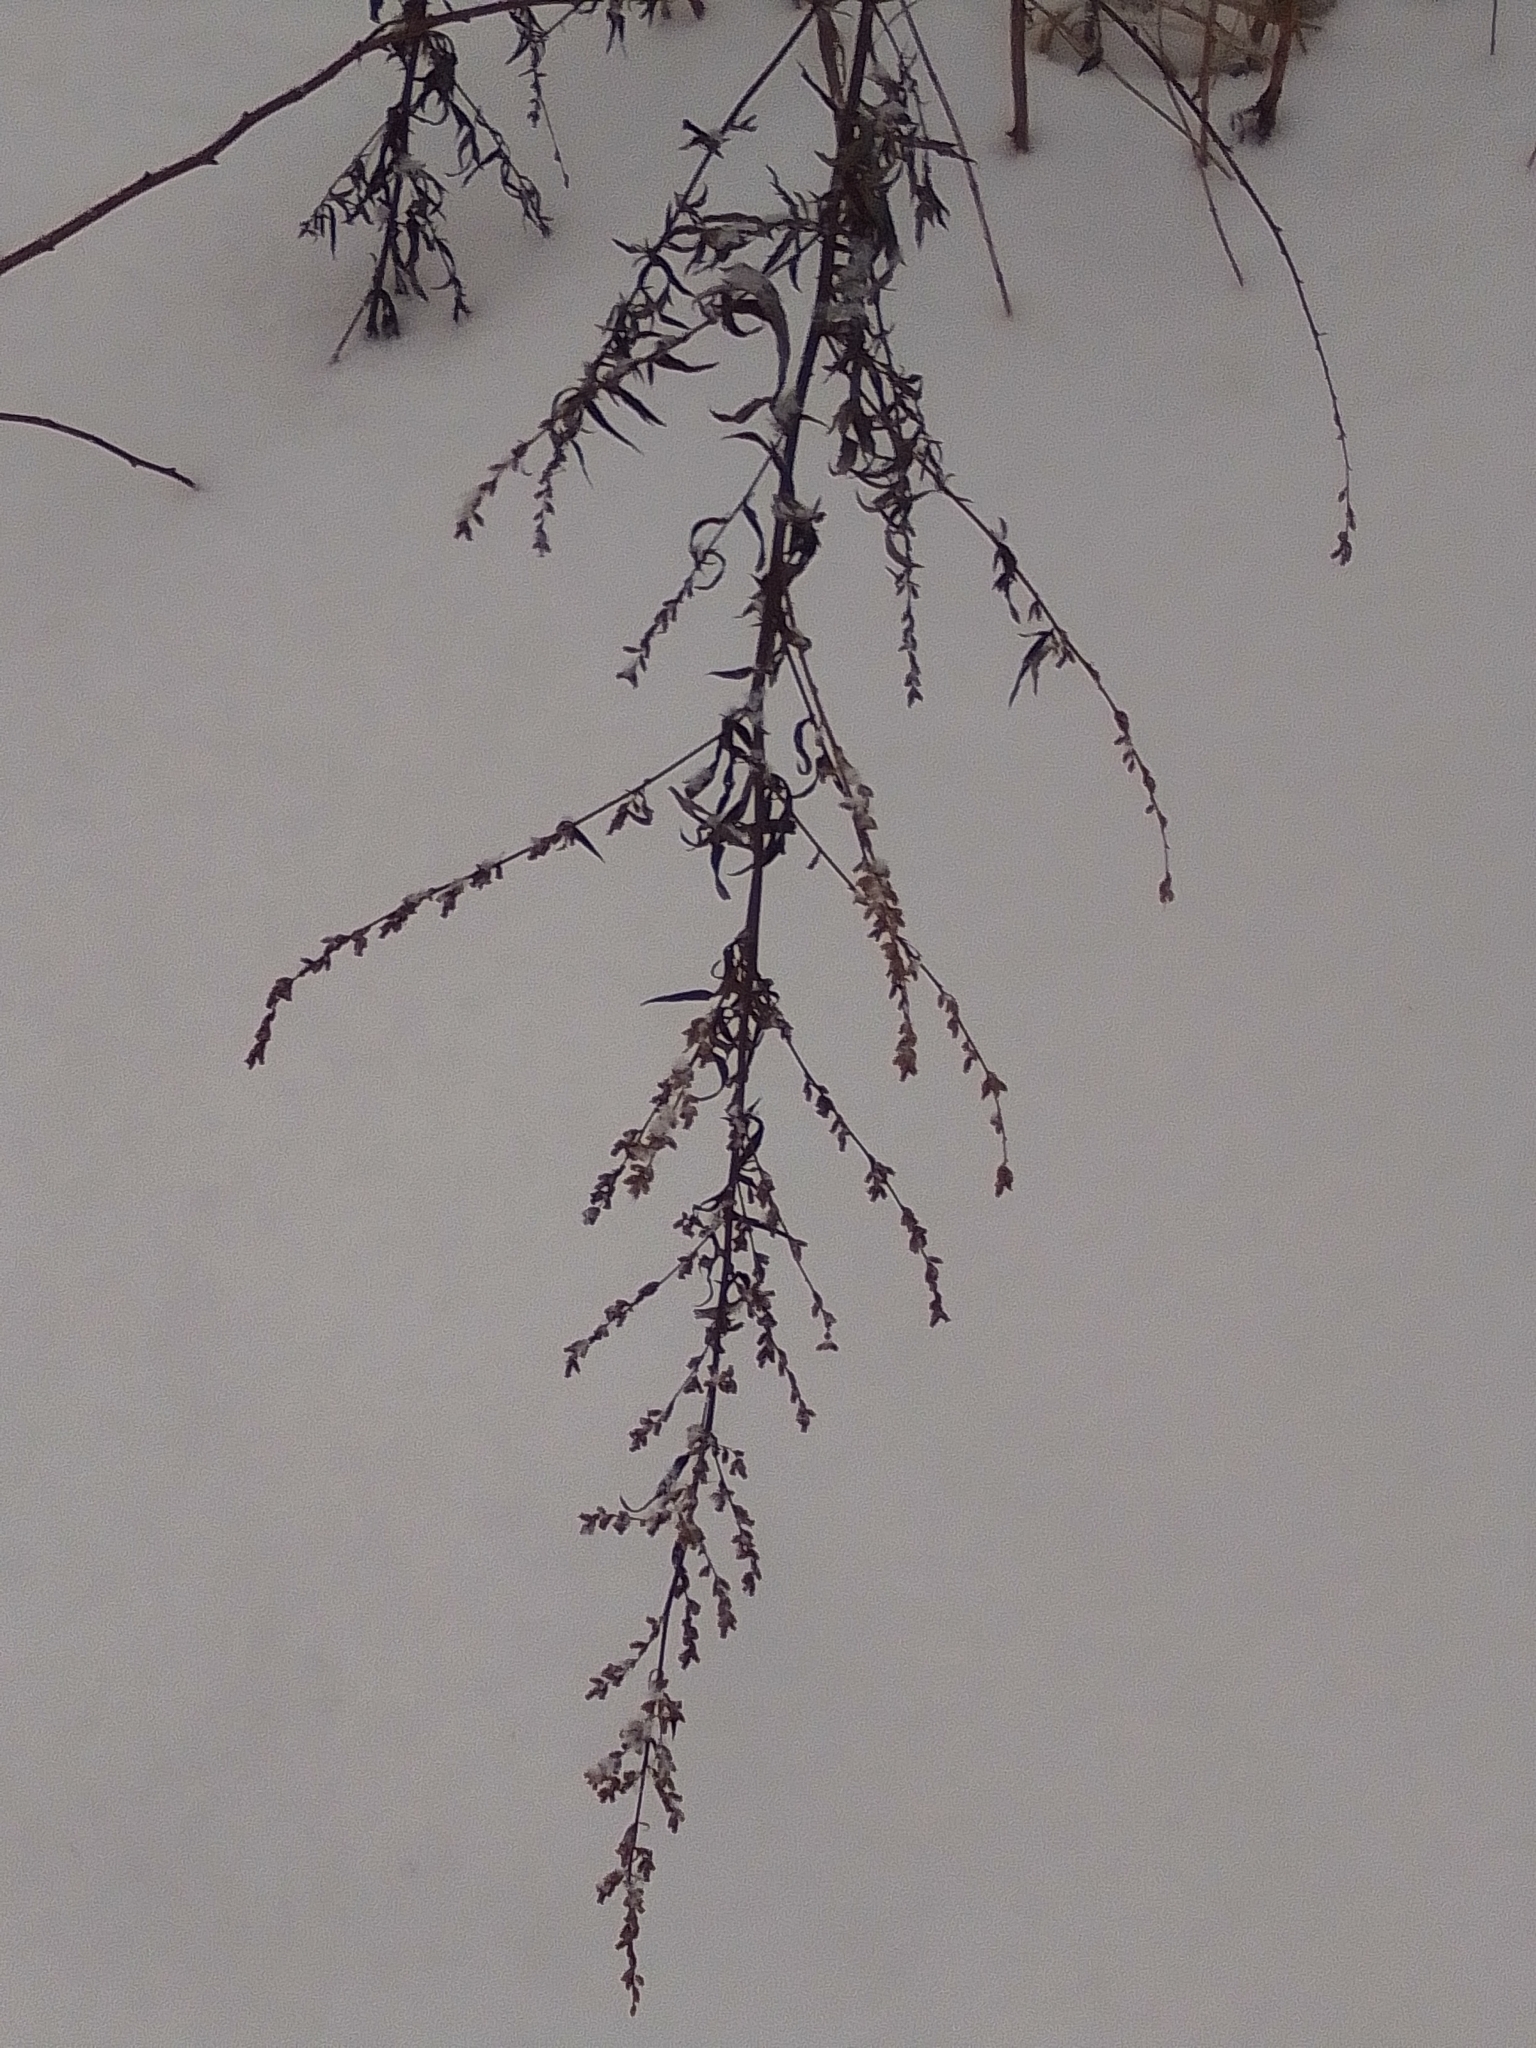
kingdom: Plantae
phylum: Tracheophyta
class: Magnoliopsida
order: Asterales
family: Asteraceae
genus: Artemisia
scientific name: Artemisia vulgaris
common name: Mugwort
